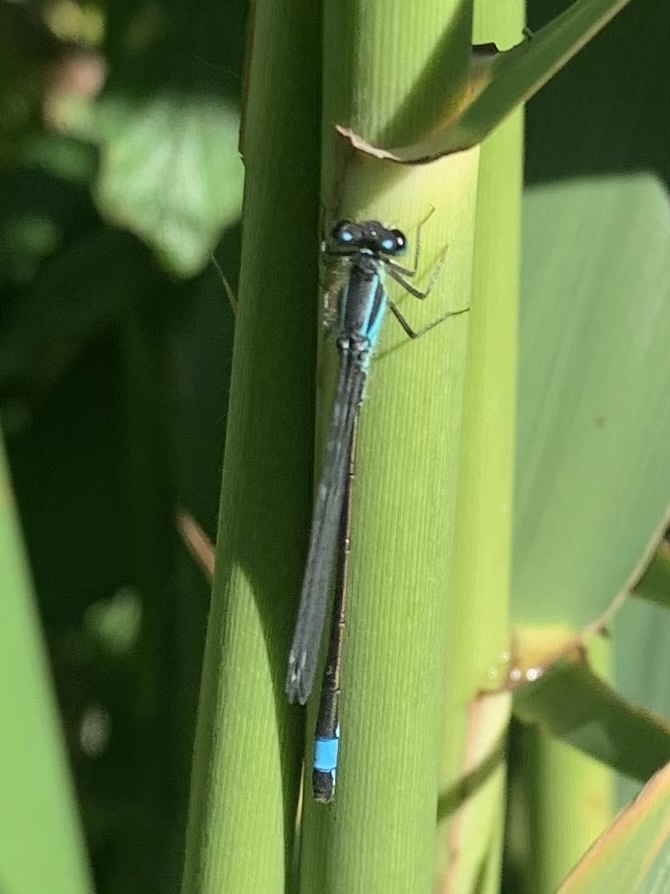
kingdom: Animalia
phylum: Arthropoda
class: Insecta
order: Odonata
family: Coenagrionidae
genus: Ischnura
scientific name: Ischnura elegans
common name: Blue-tailed damselfly
